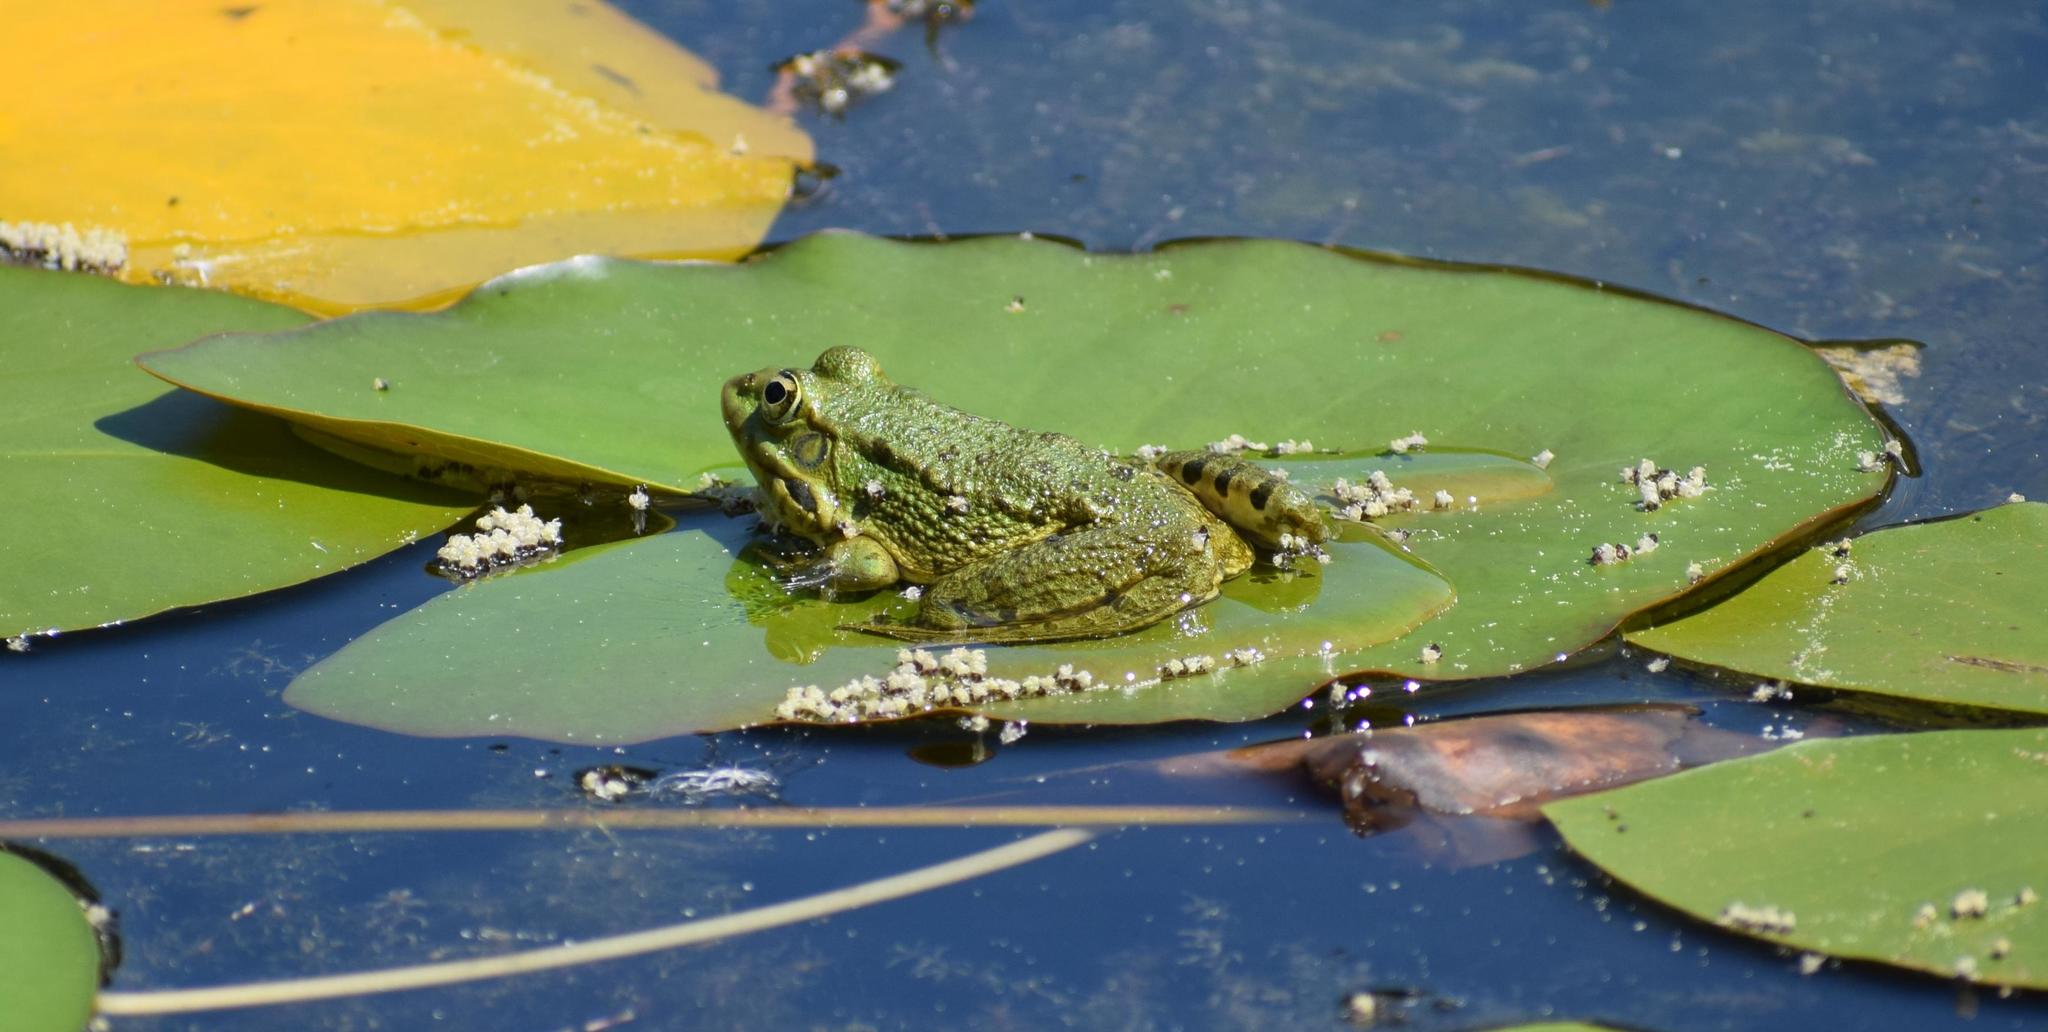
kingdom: Animalia
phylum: Chordata
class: Amphibia
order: Anura
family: Ranidae
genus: Pelophylax
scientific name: Pelophylax
